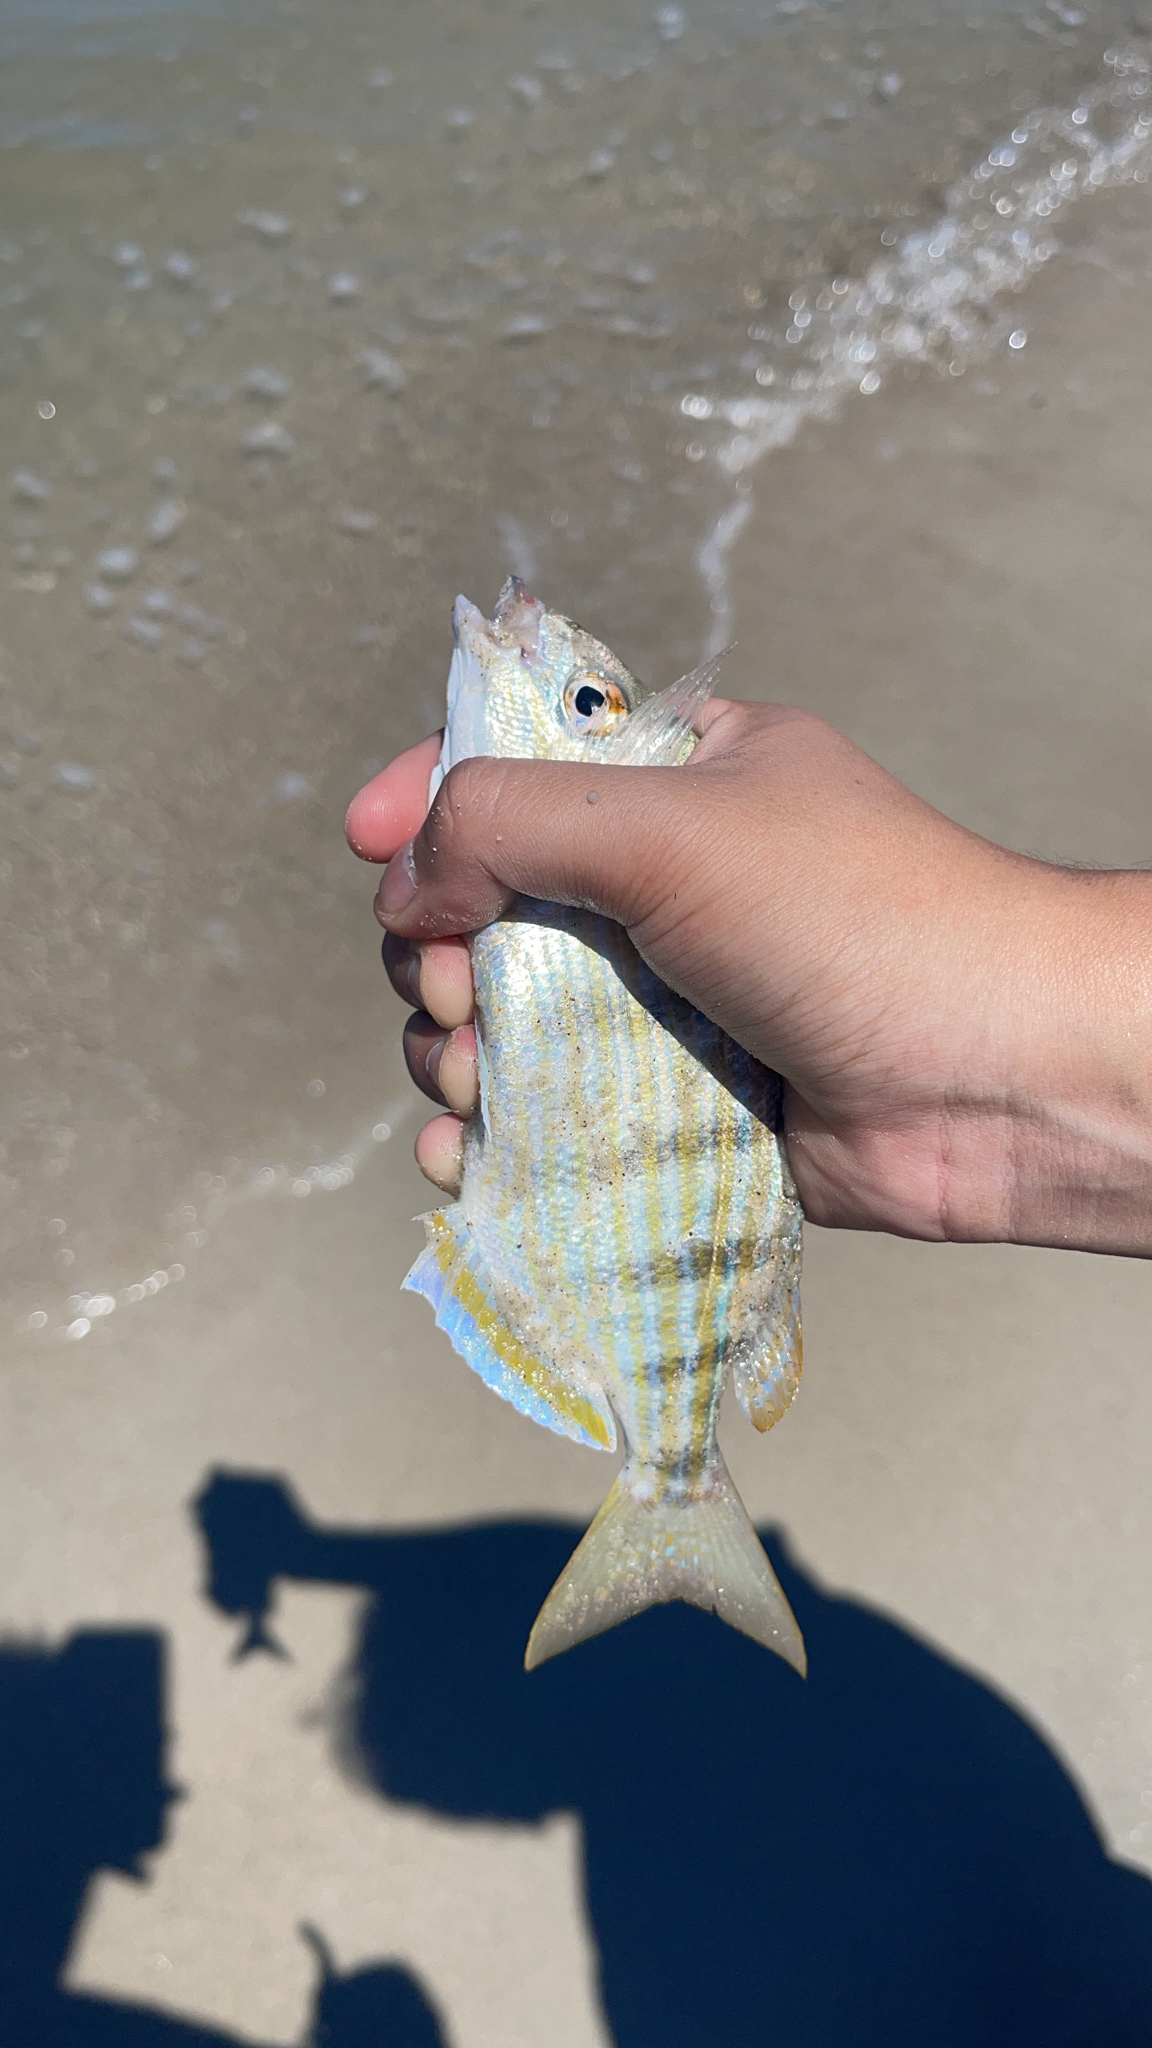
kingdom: Animalia
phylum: Chordata
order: Perciformes
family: Sparidae
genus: Lagodon
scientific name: Lagodon rhomboides
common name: Pinfish
